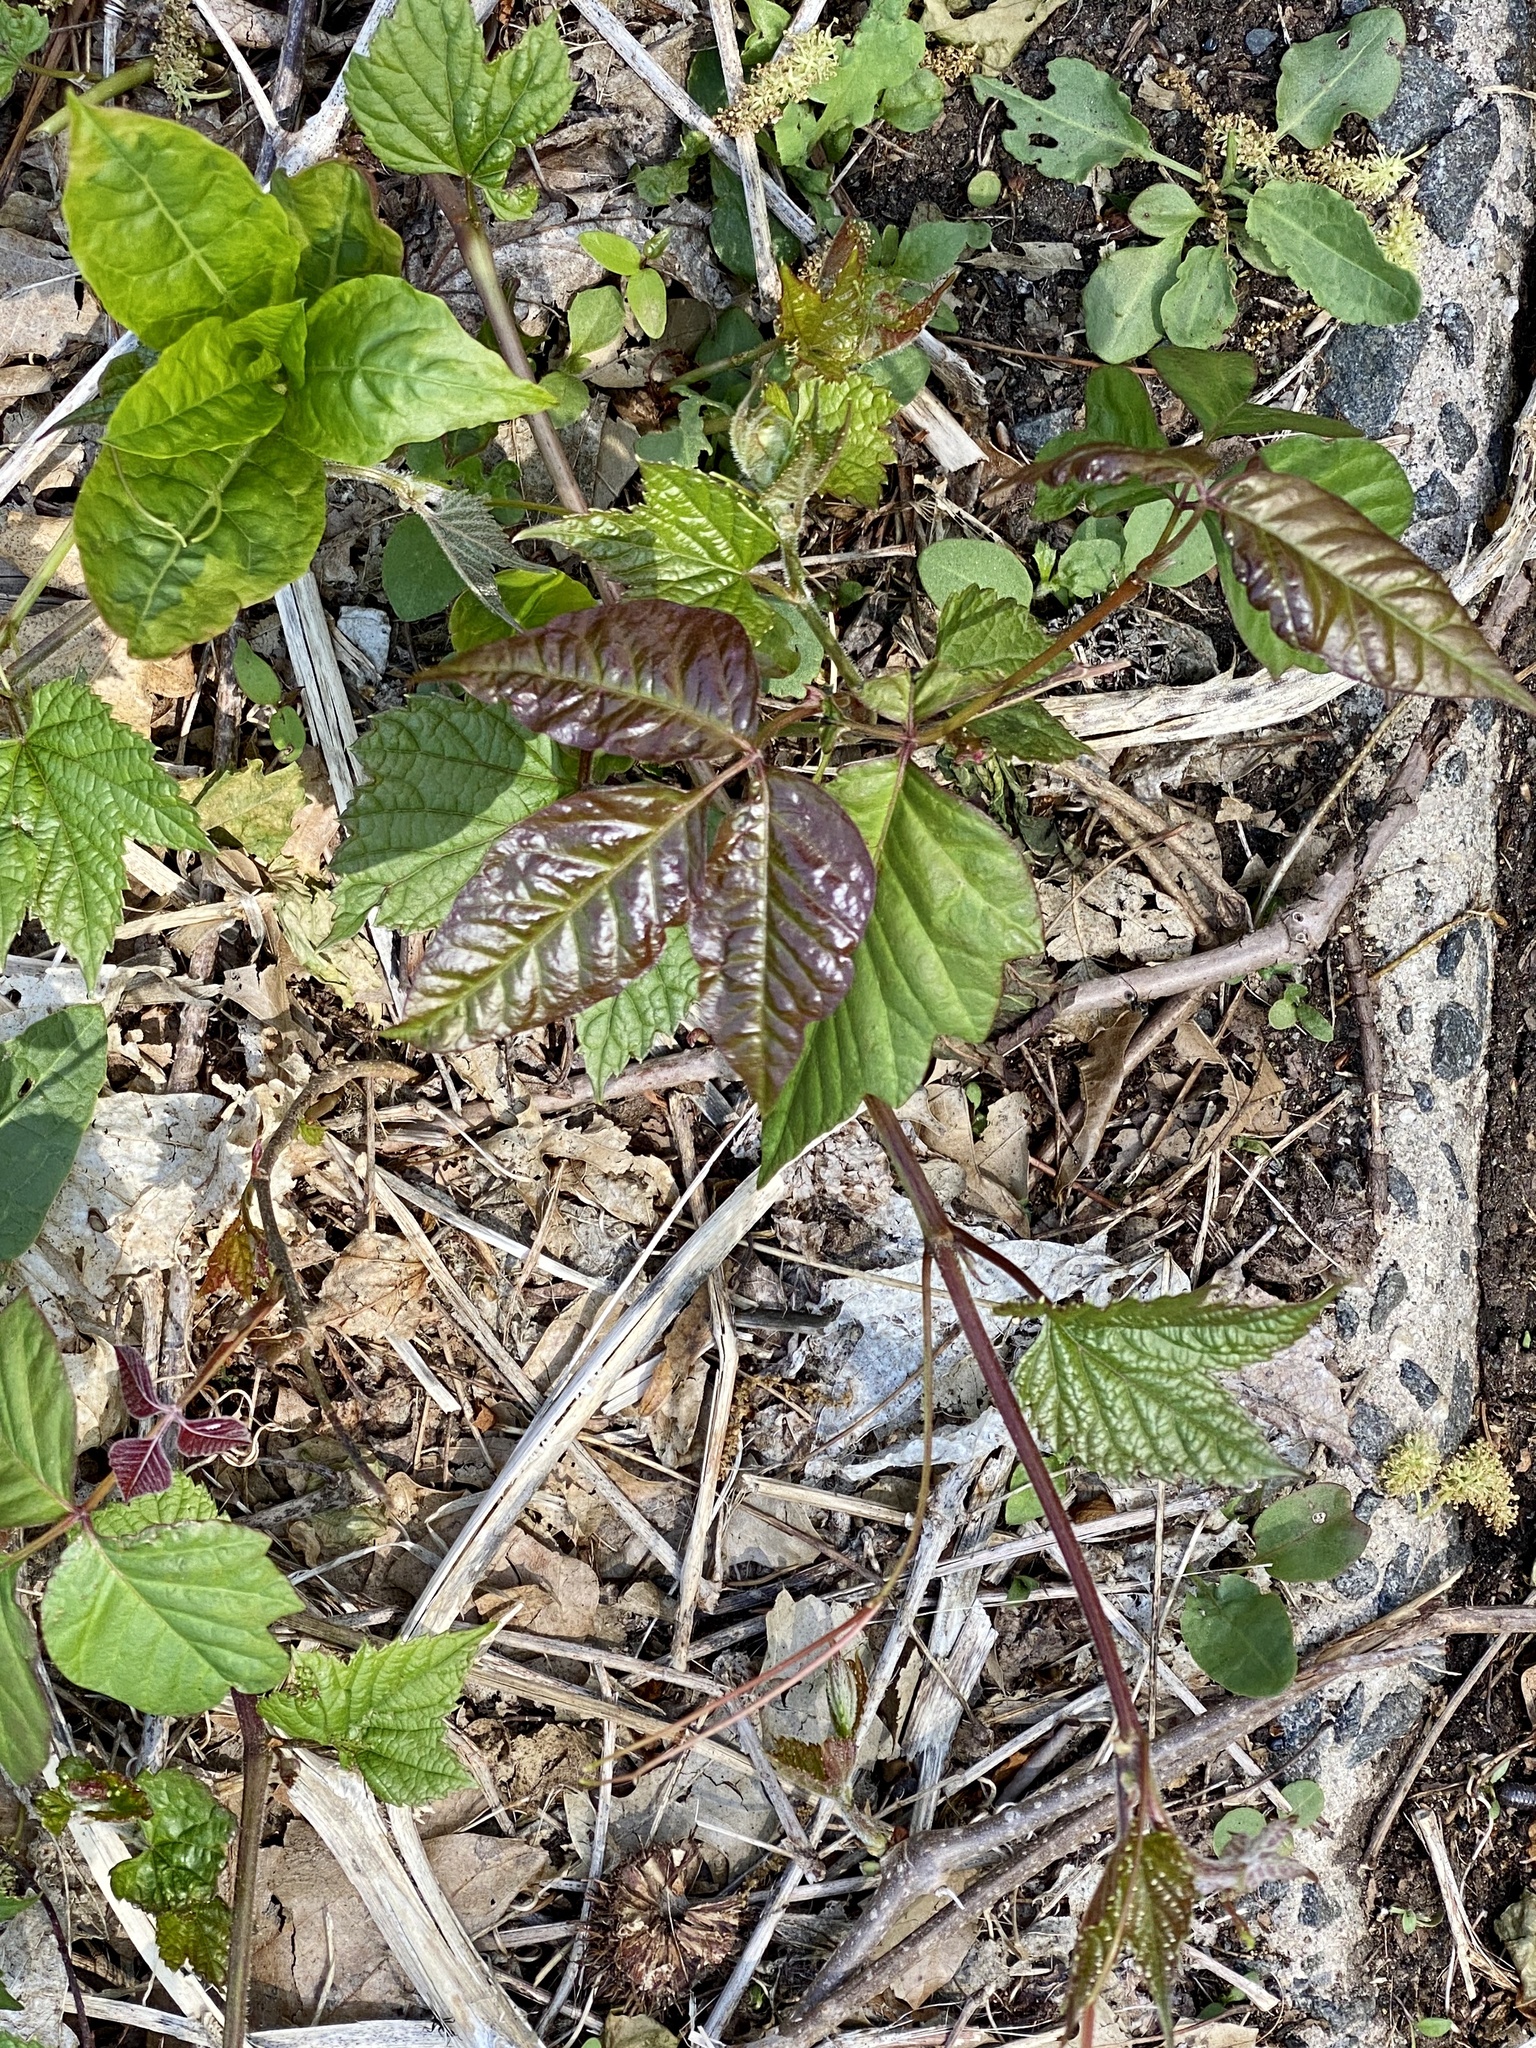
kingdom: Plantae
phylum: Tracheophyta
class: Magnoliopsida
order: Sapindales
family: Anacardiaceae
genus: Toxicodendron
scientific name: Toxicodendron radicans
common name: Poison ivy
